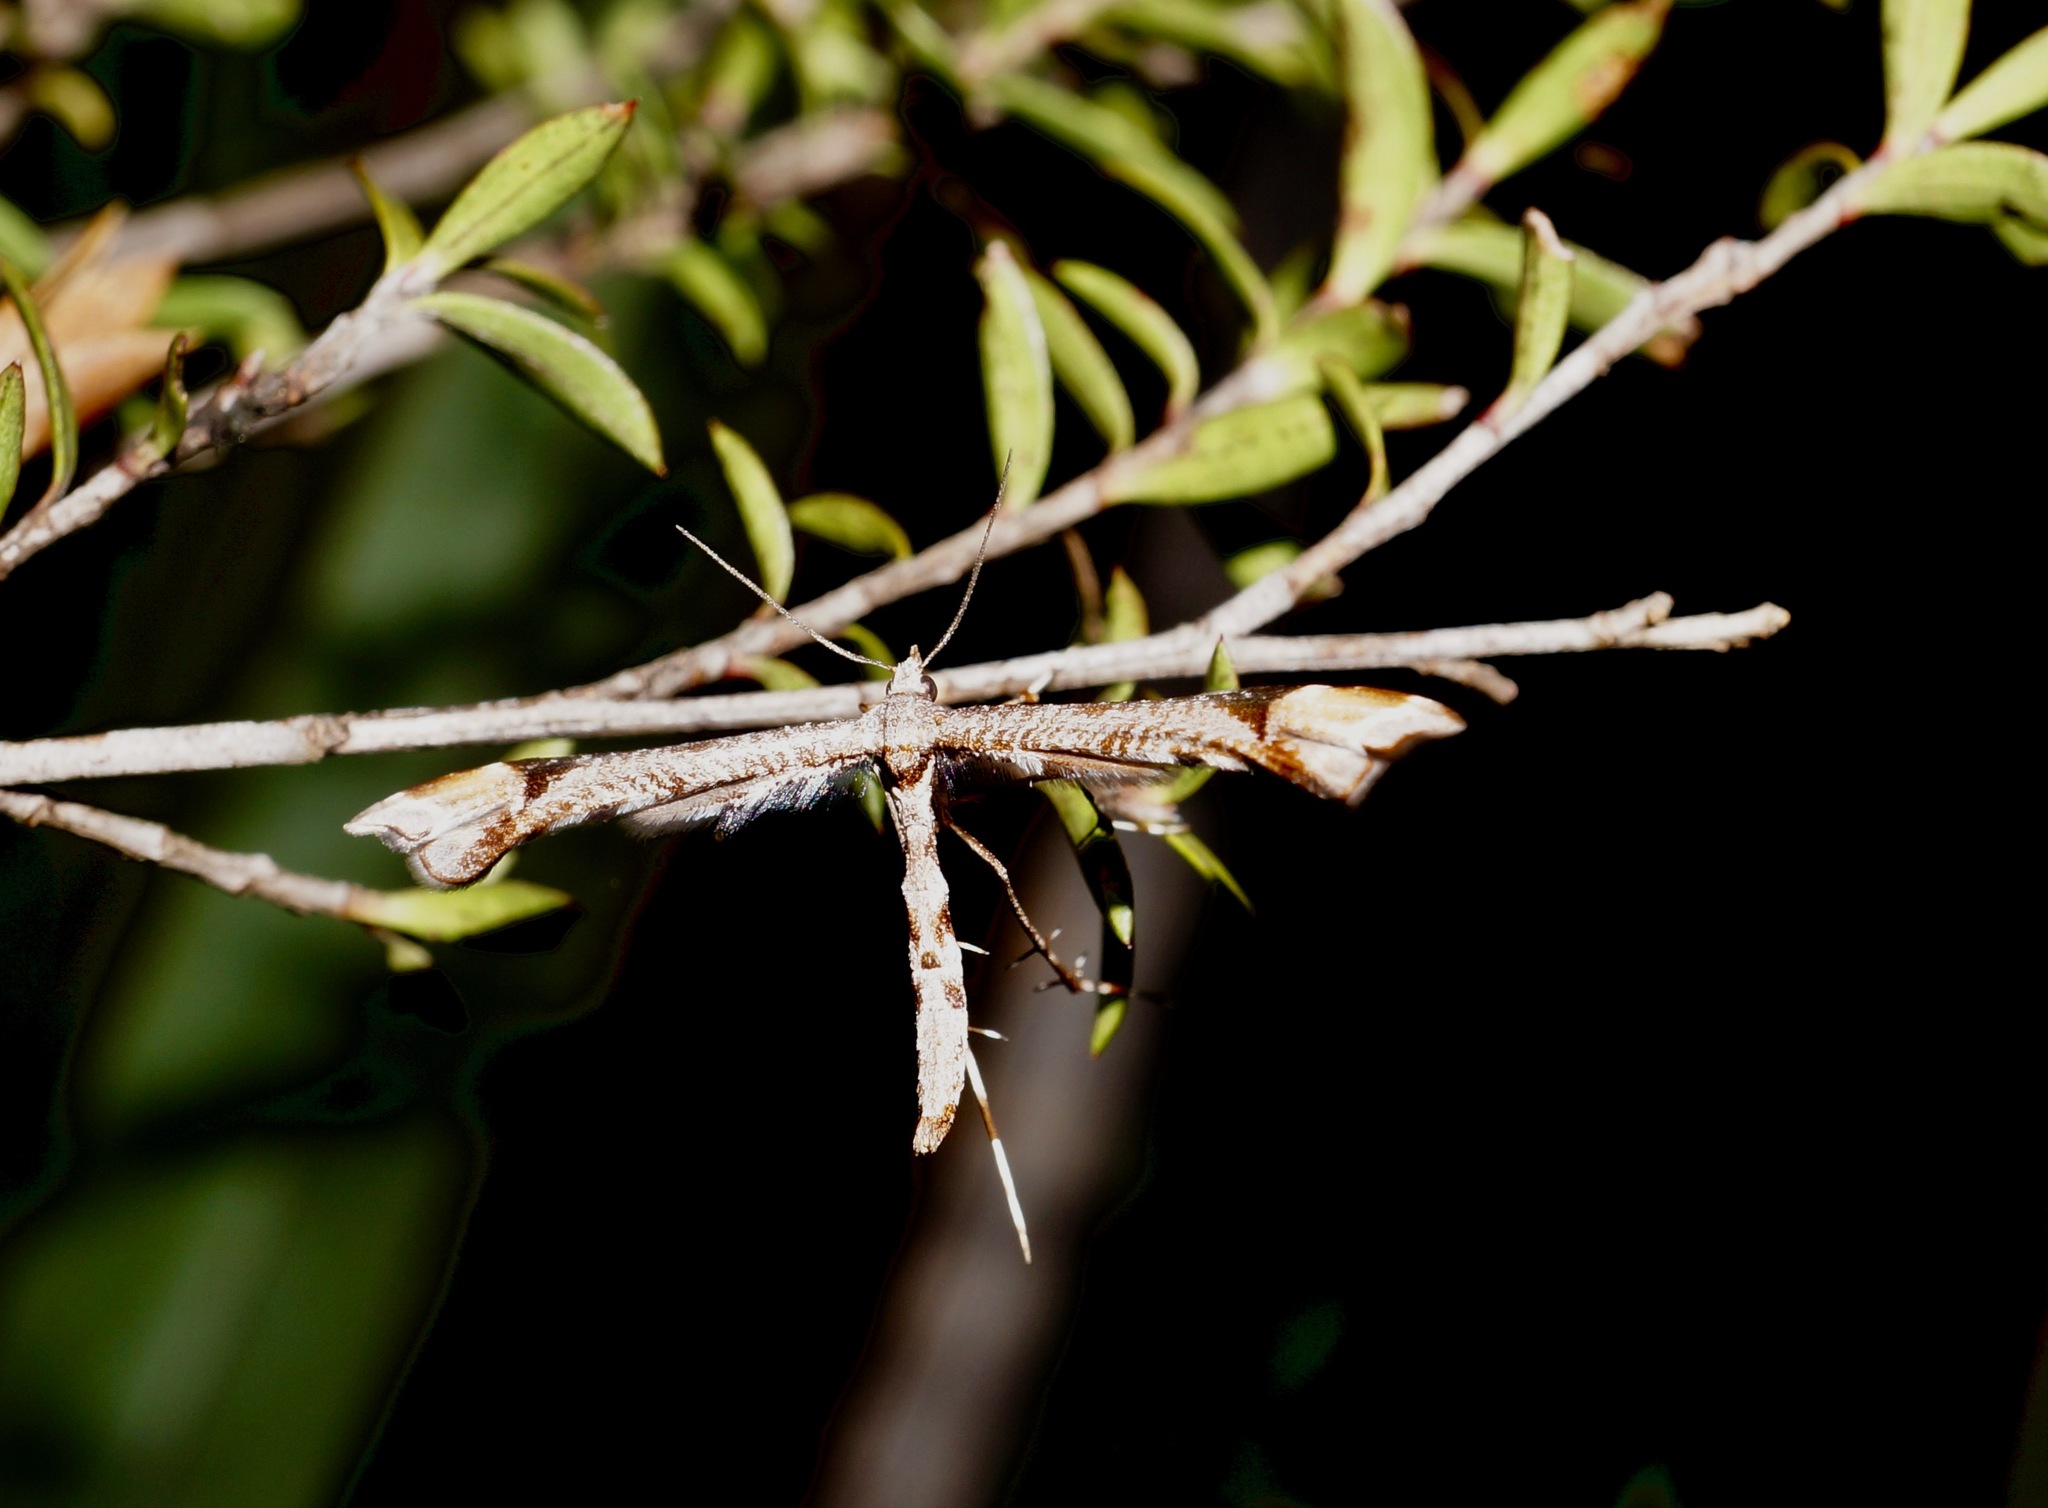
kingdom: Animalia
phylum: Arthropoda
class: Insecta
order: Lepidoptera
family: Pterophoridae
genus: Amblyptilia
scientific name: Amblyptilia falcatalis
